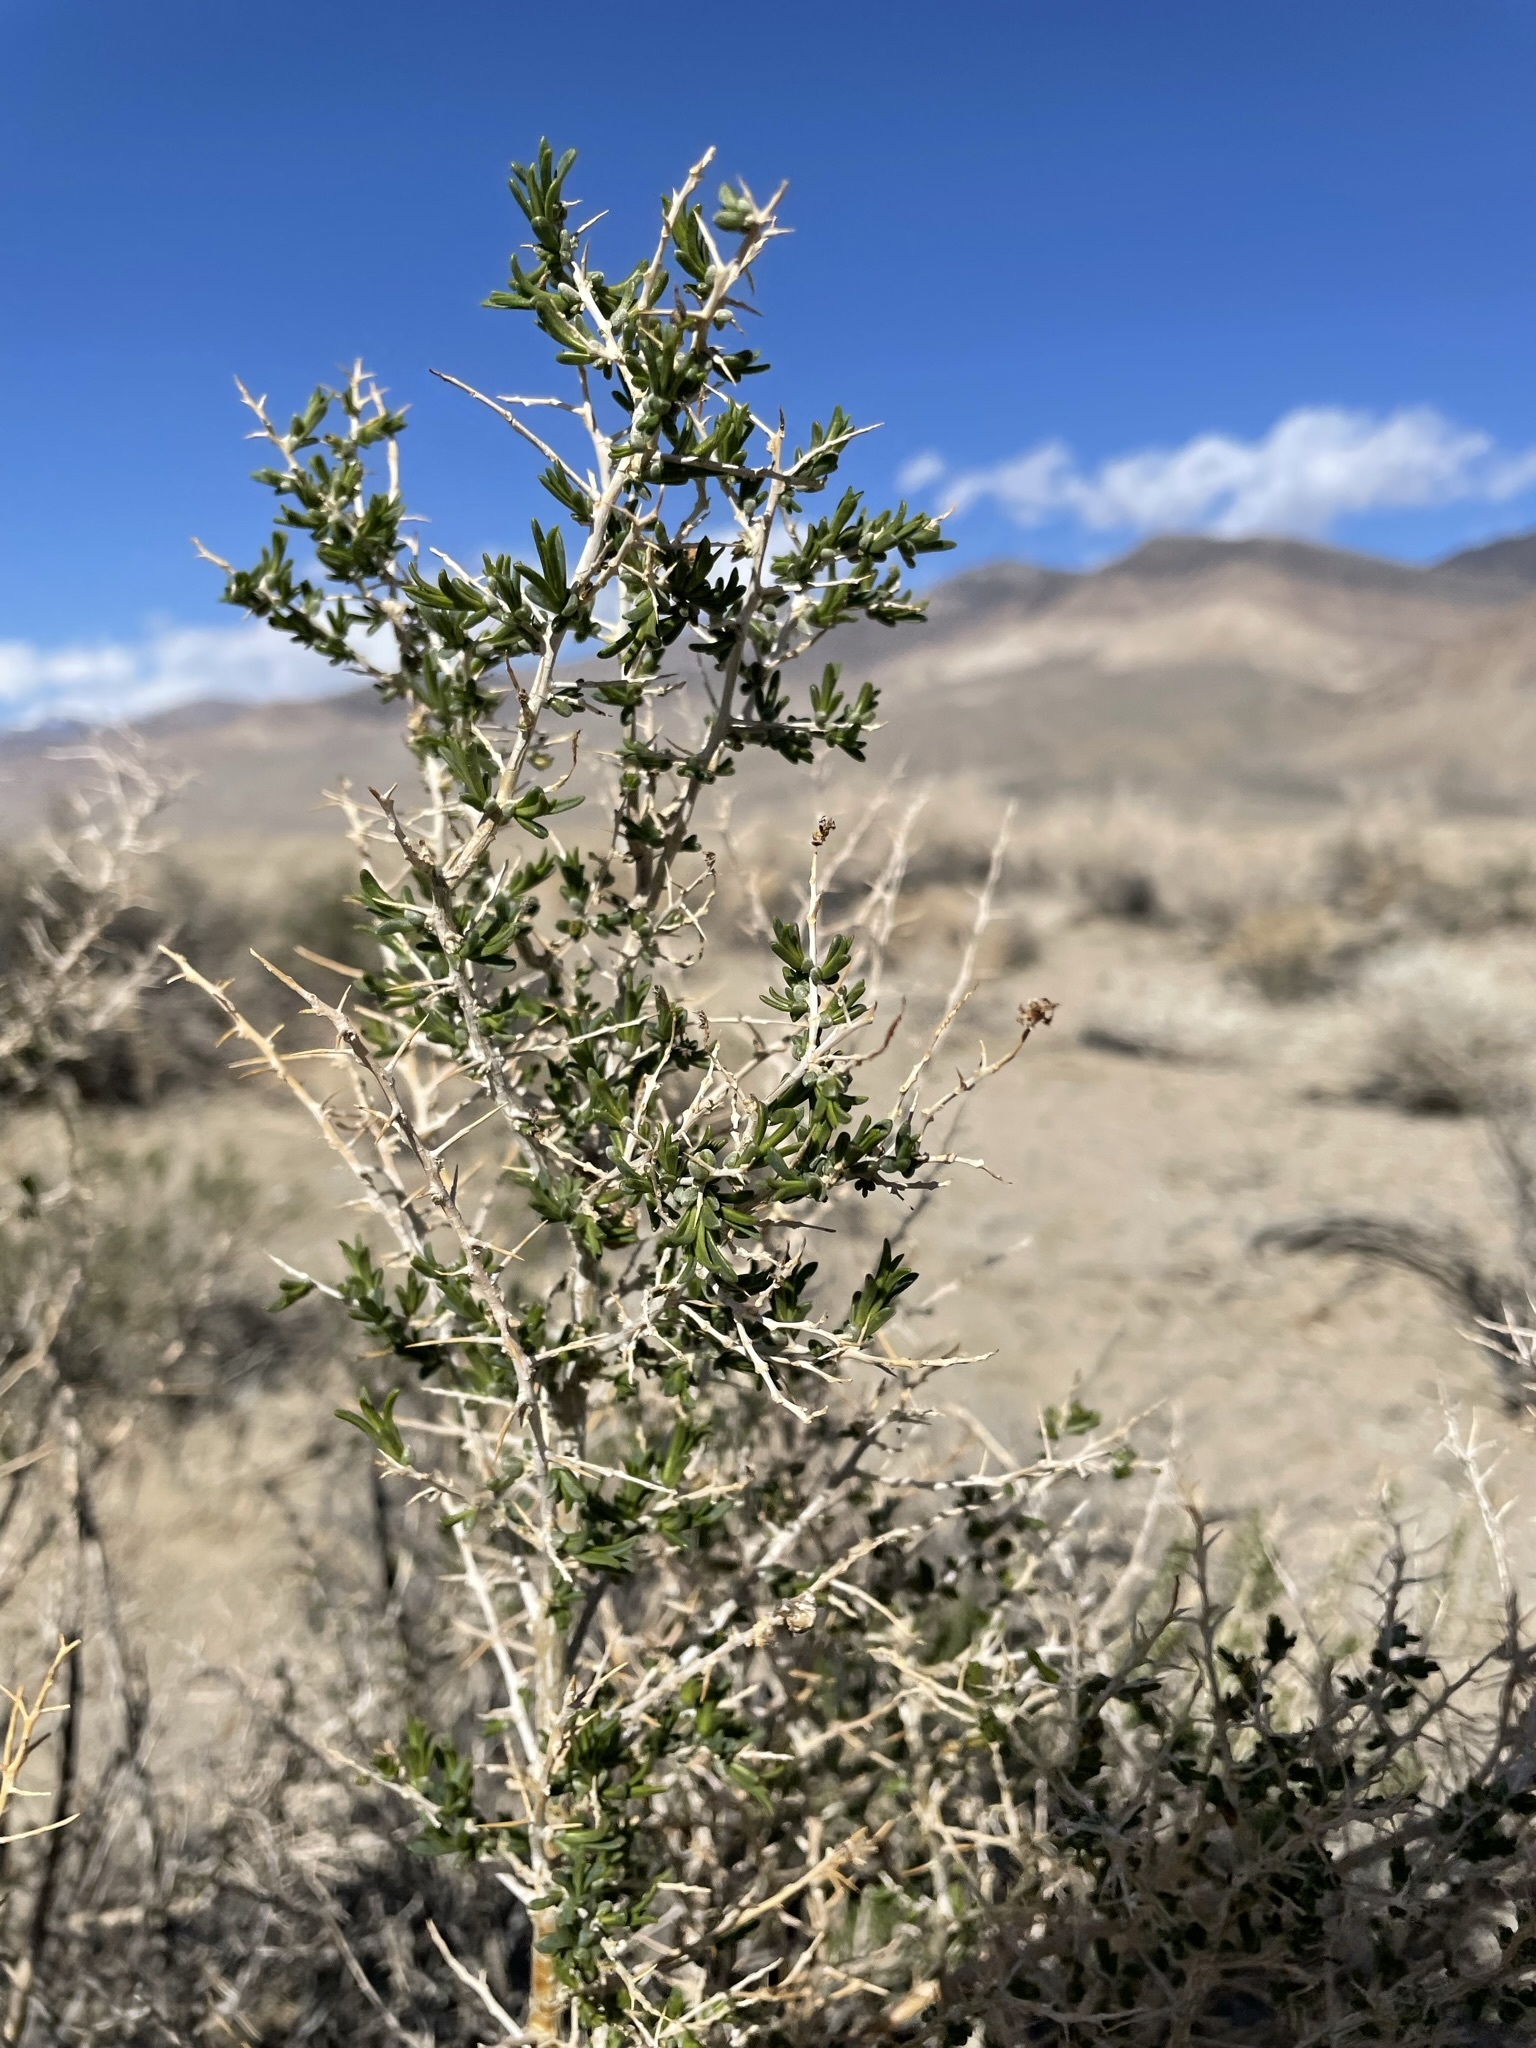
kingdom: Plantae
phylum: Tracheophyta
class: Magnoliopsida
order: Caryophyllales
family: Sarcobataceae
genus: Sarcobatus
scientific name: Sarcobatus vermiculatus
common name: Greasewood
